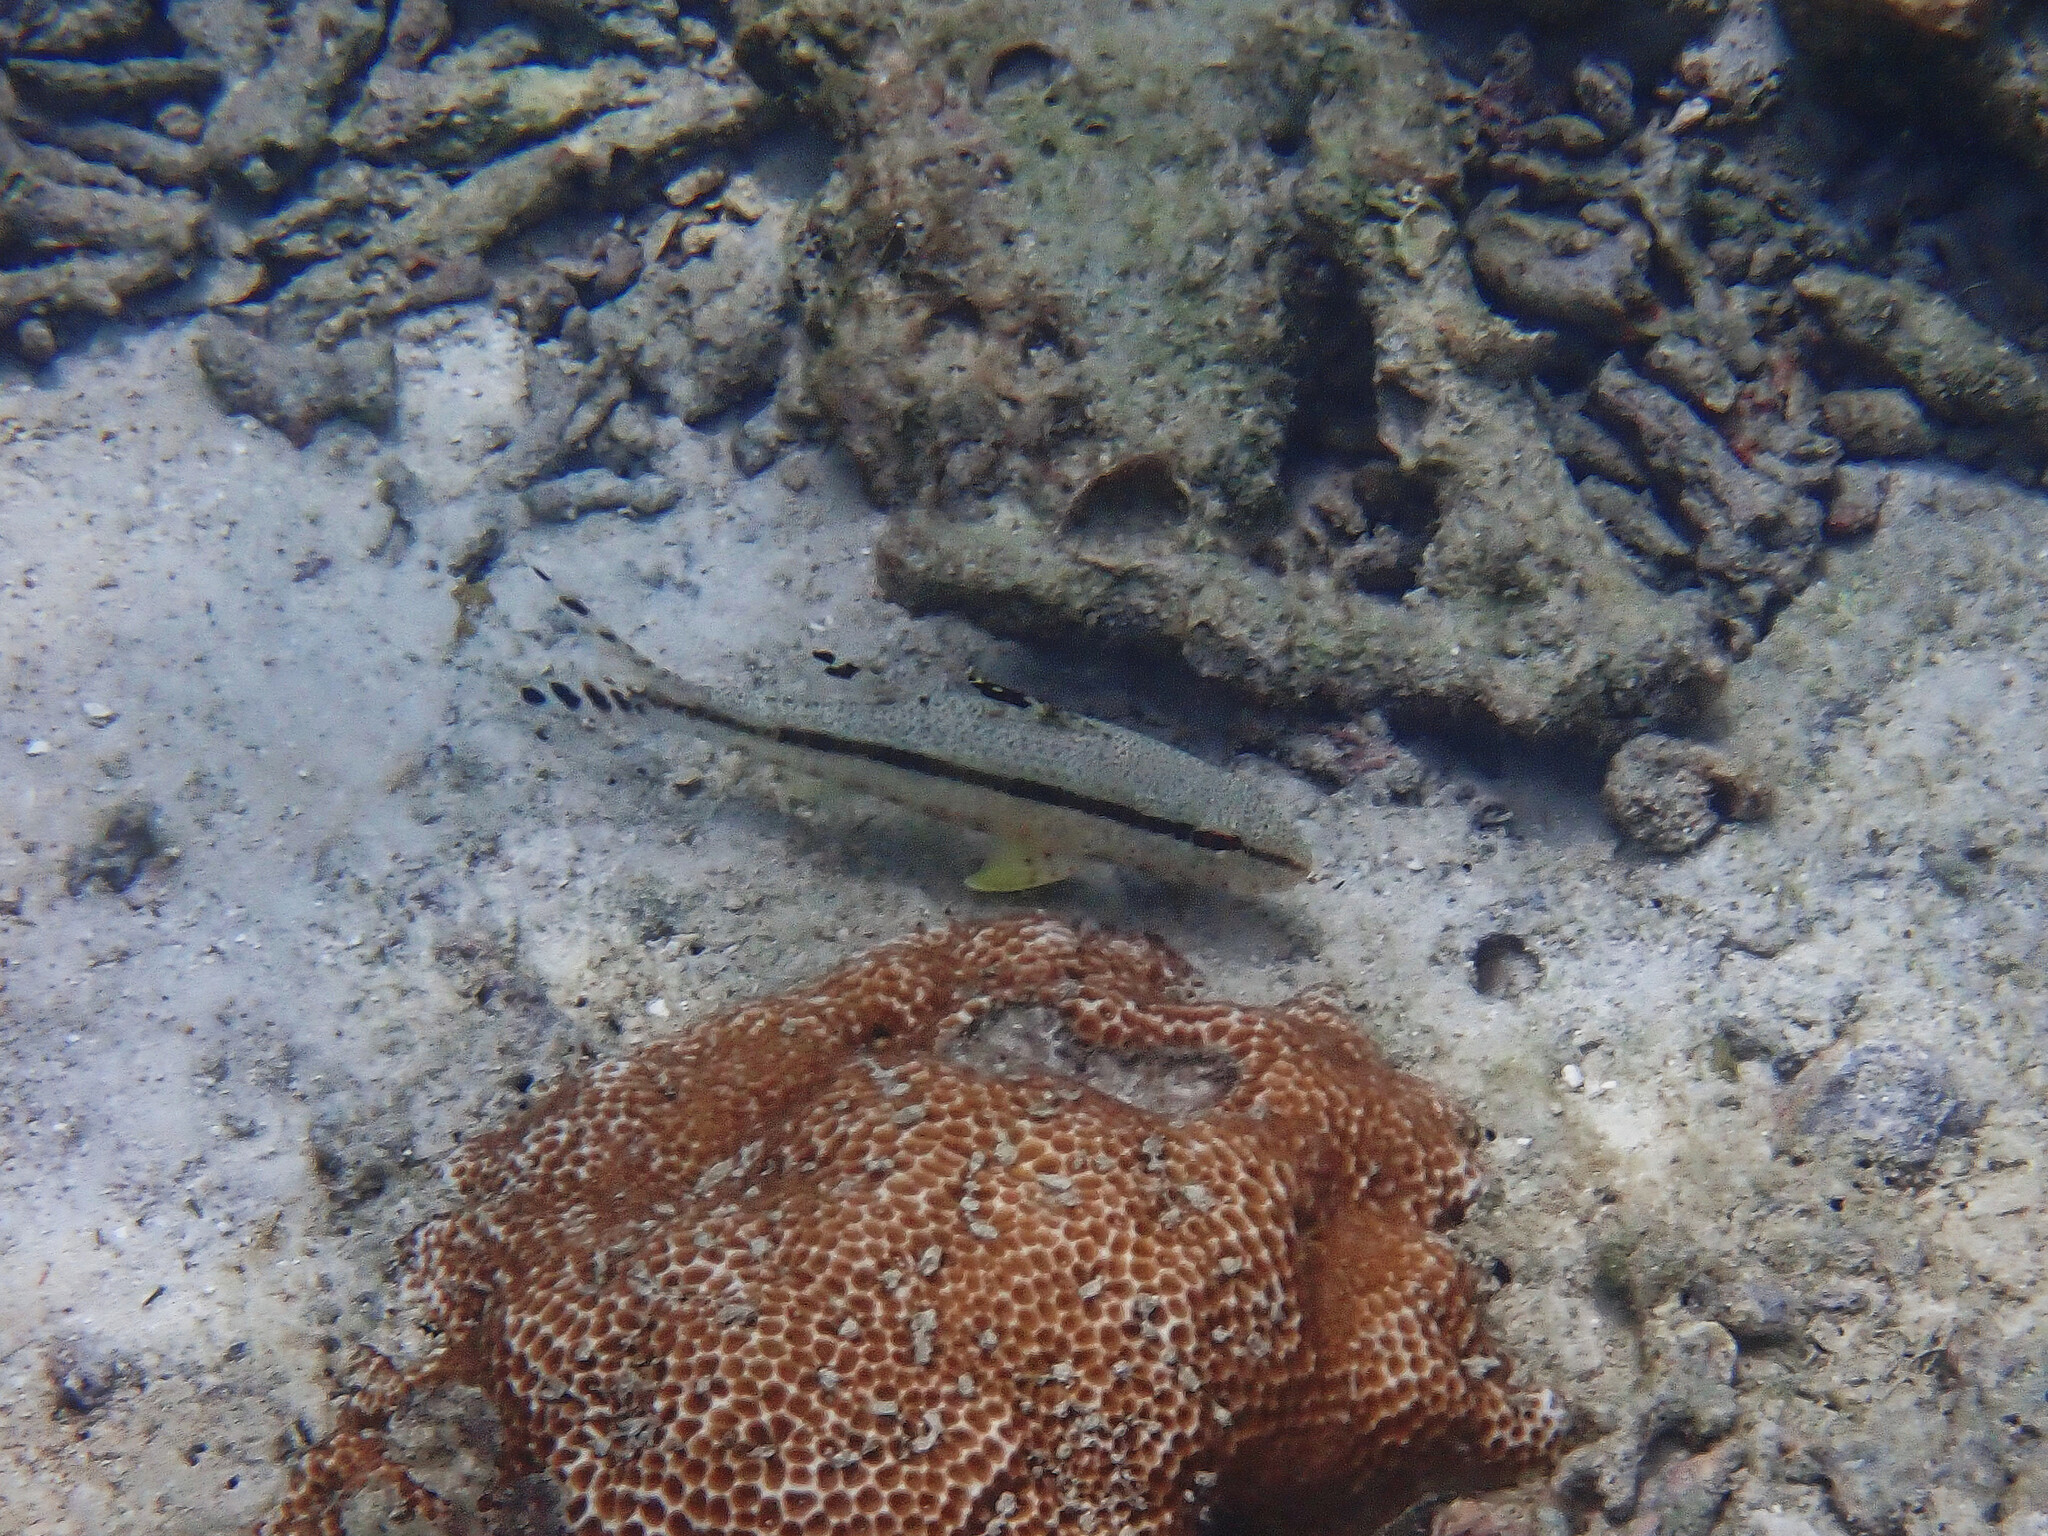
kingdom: Animalia
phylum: Chordata
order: Perciformes
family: Mullidae
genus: Upeneus
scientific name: Upeneus tragula
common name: Freckled goatfish
